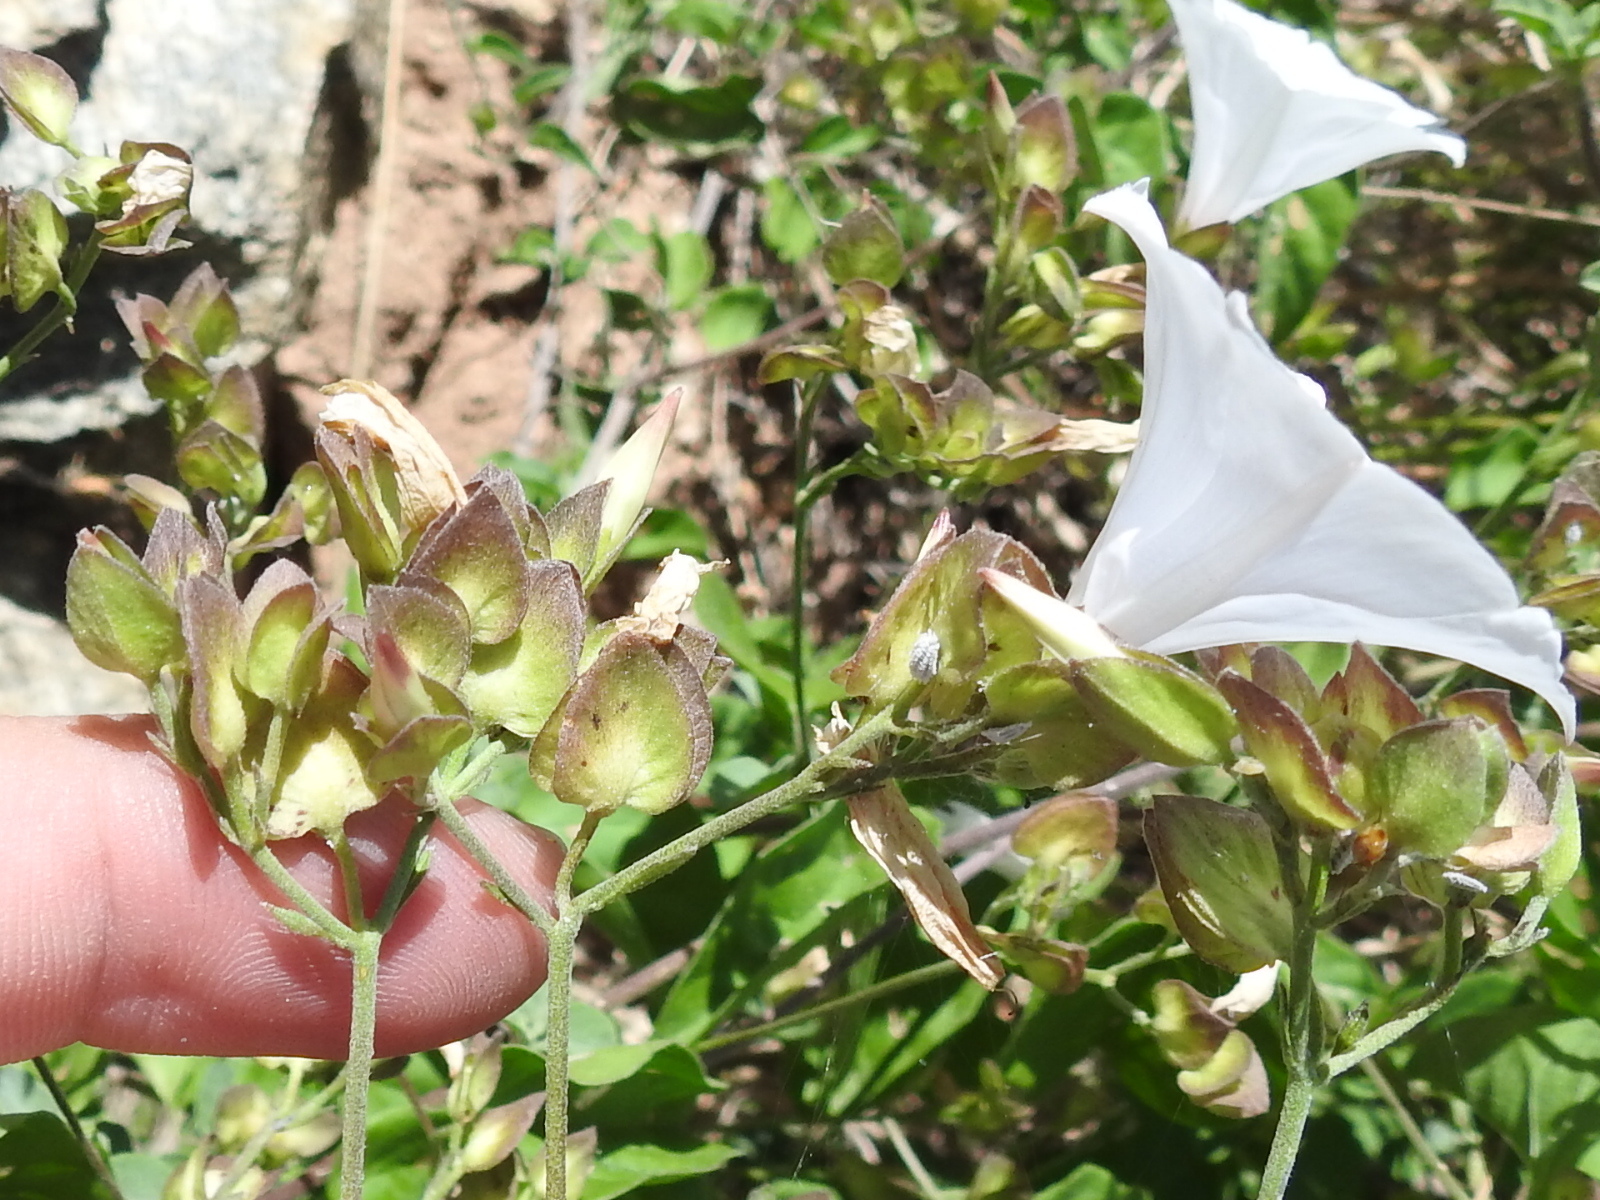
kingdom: Plantae
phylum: Tracheophyta
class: Magnoliopsida
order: Lamiales
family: Acanthaceae
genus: Dicliptera
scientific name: Dicliptera resupinata
